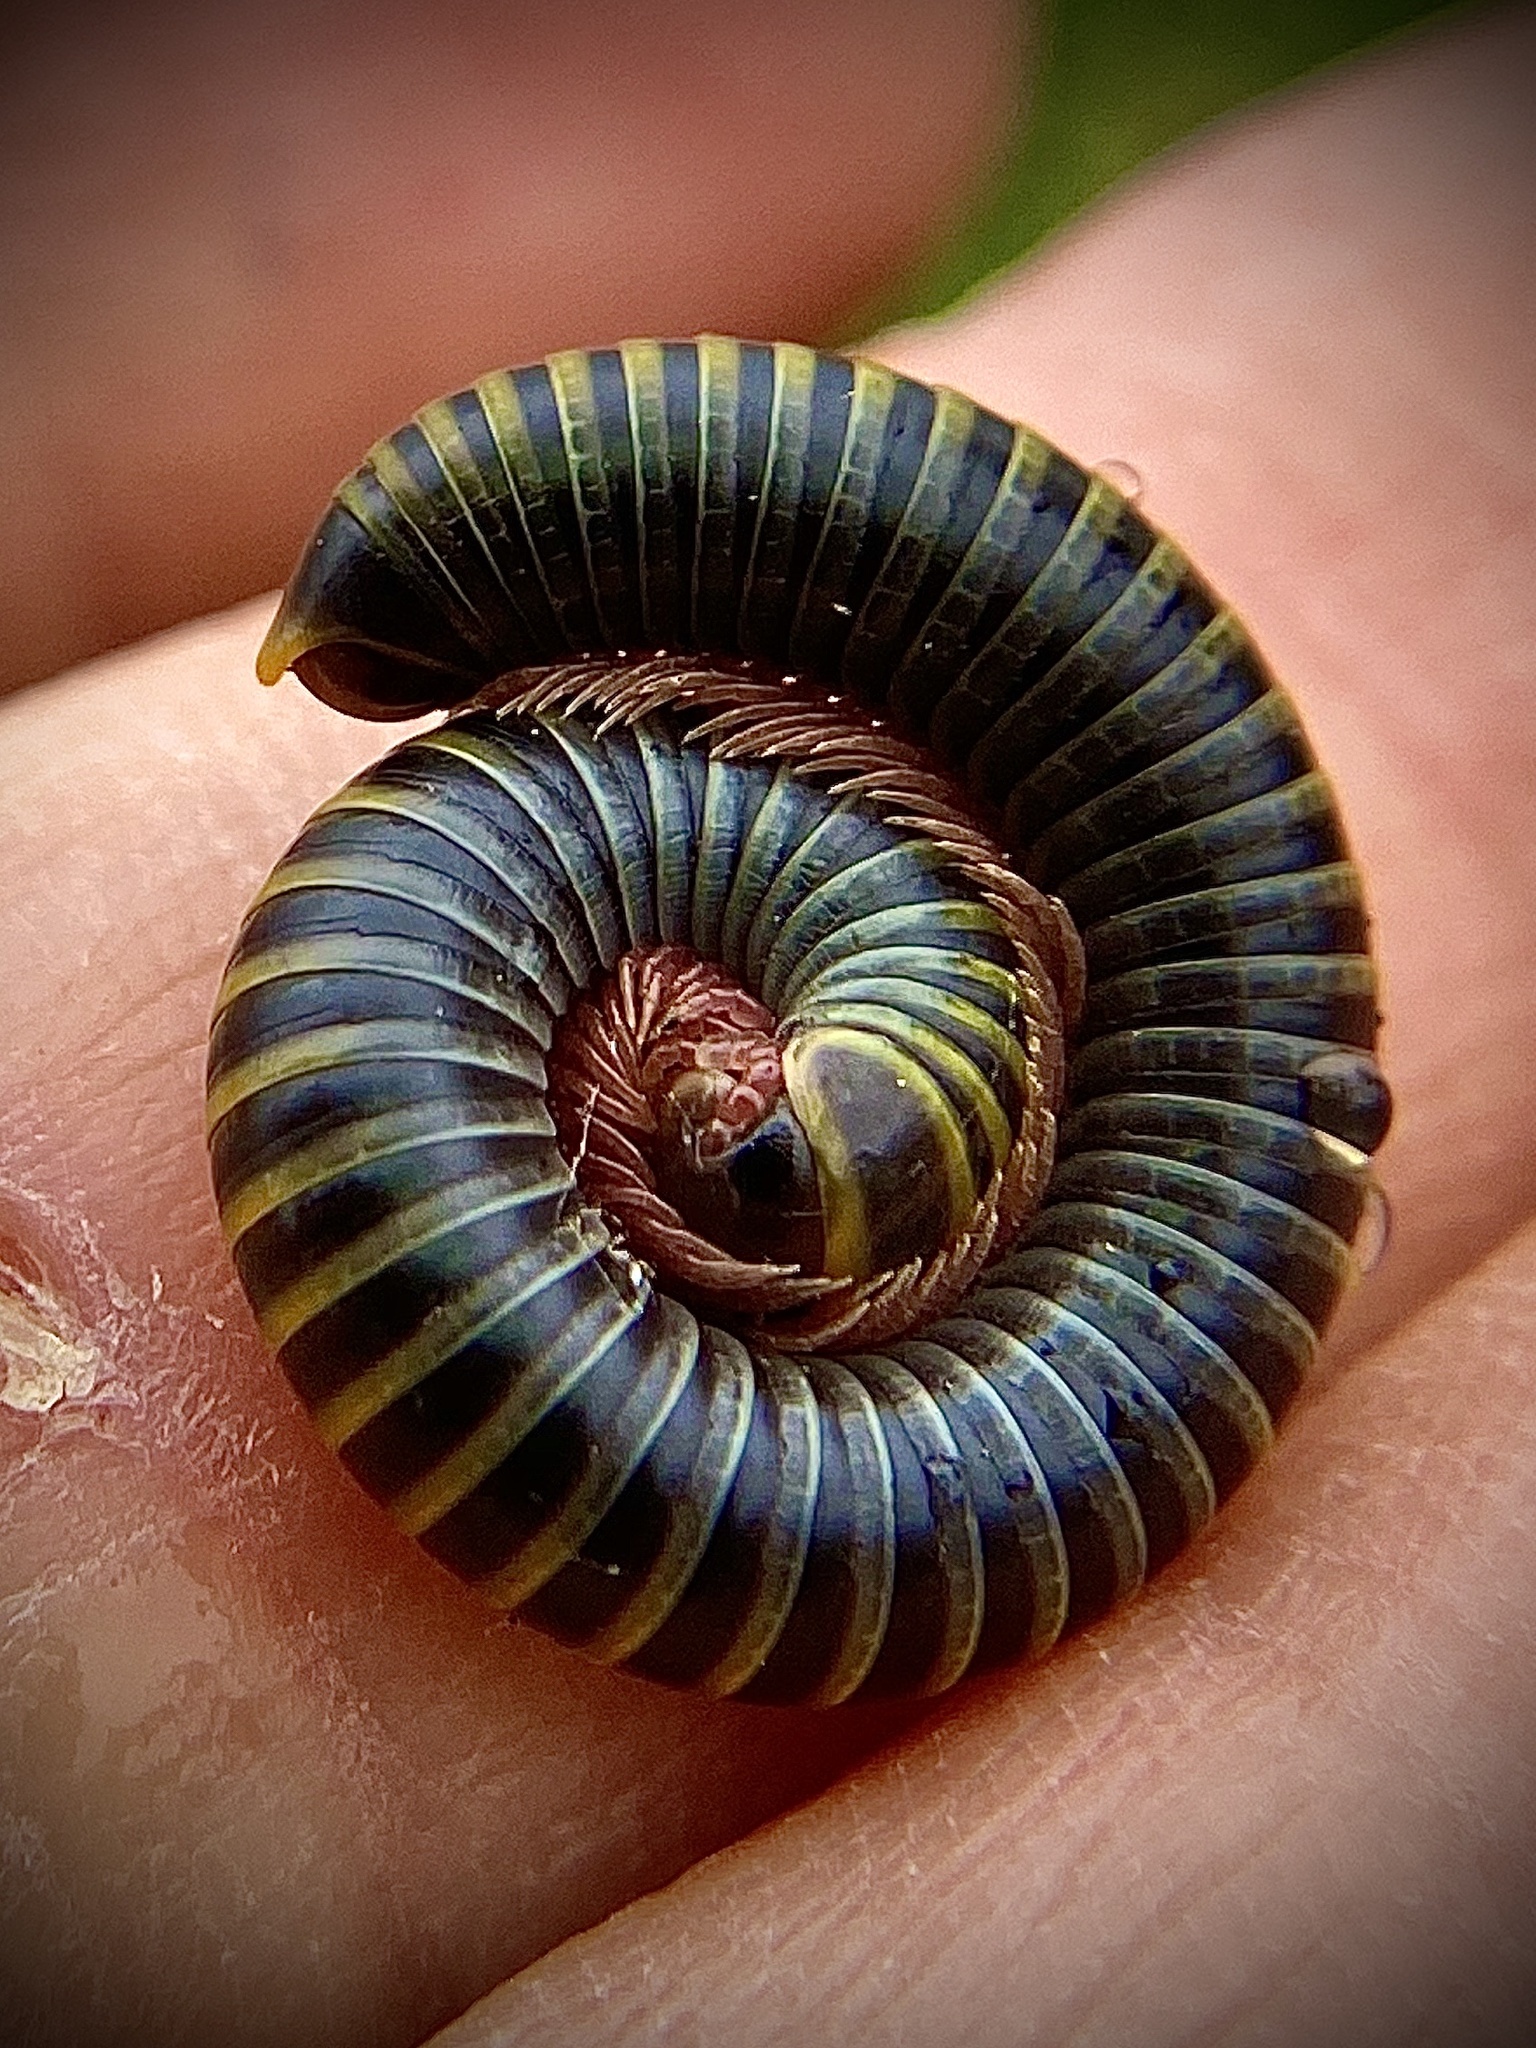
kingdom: Animalia
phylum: Arthropoda
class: Diplopoda
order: Spirobolida
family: Rhinocricidae
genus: Anadenobolus
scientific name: Anadenobolus monilicornis
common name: Caribbean millipede
